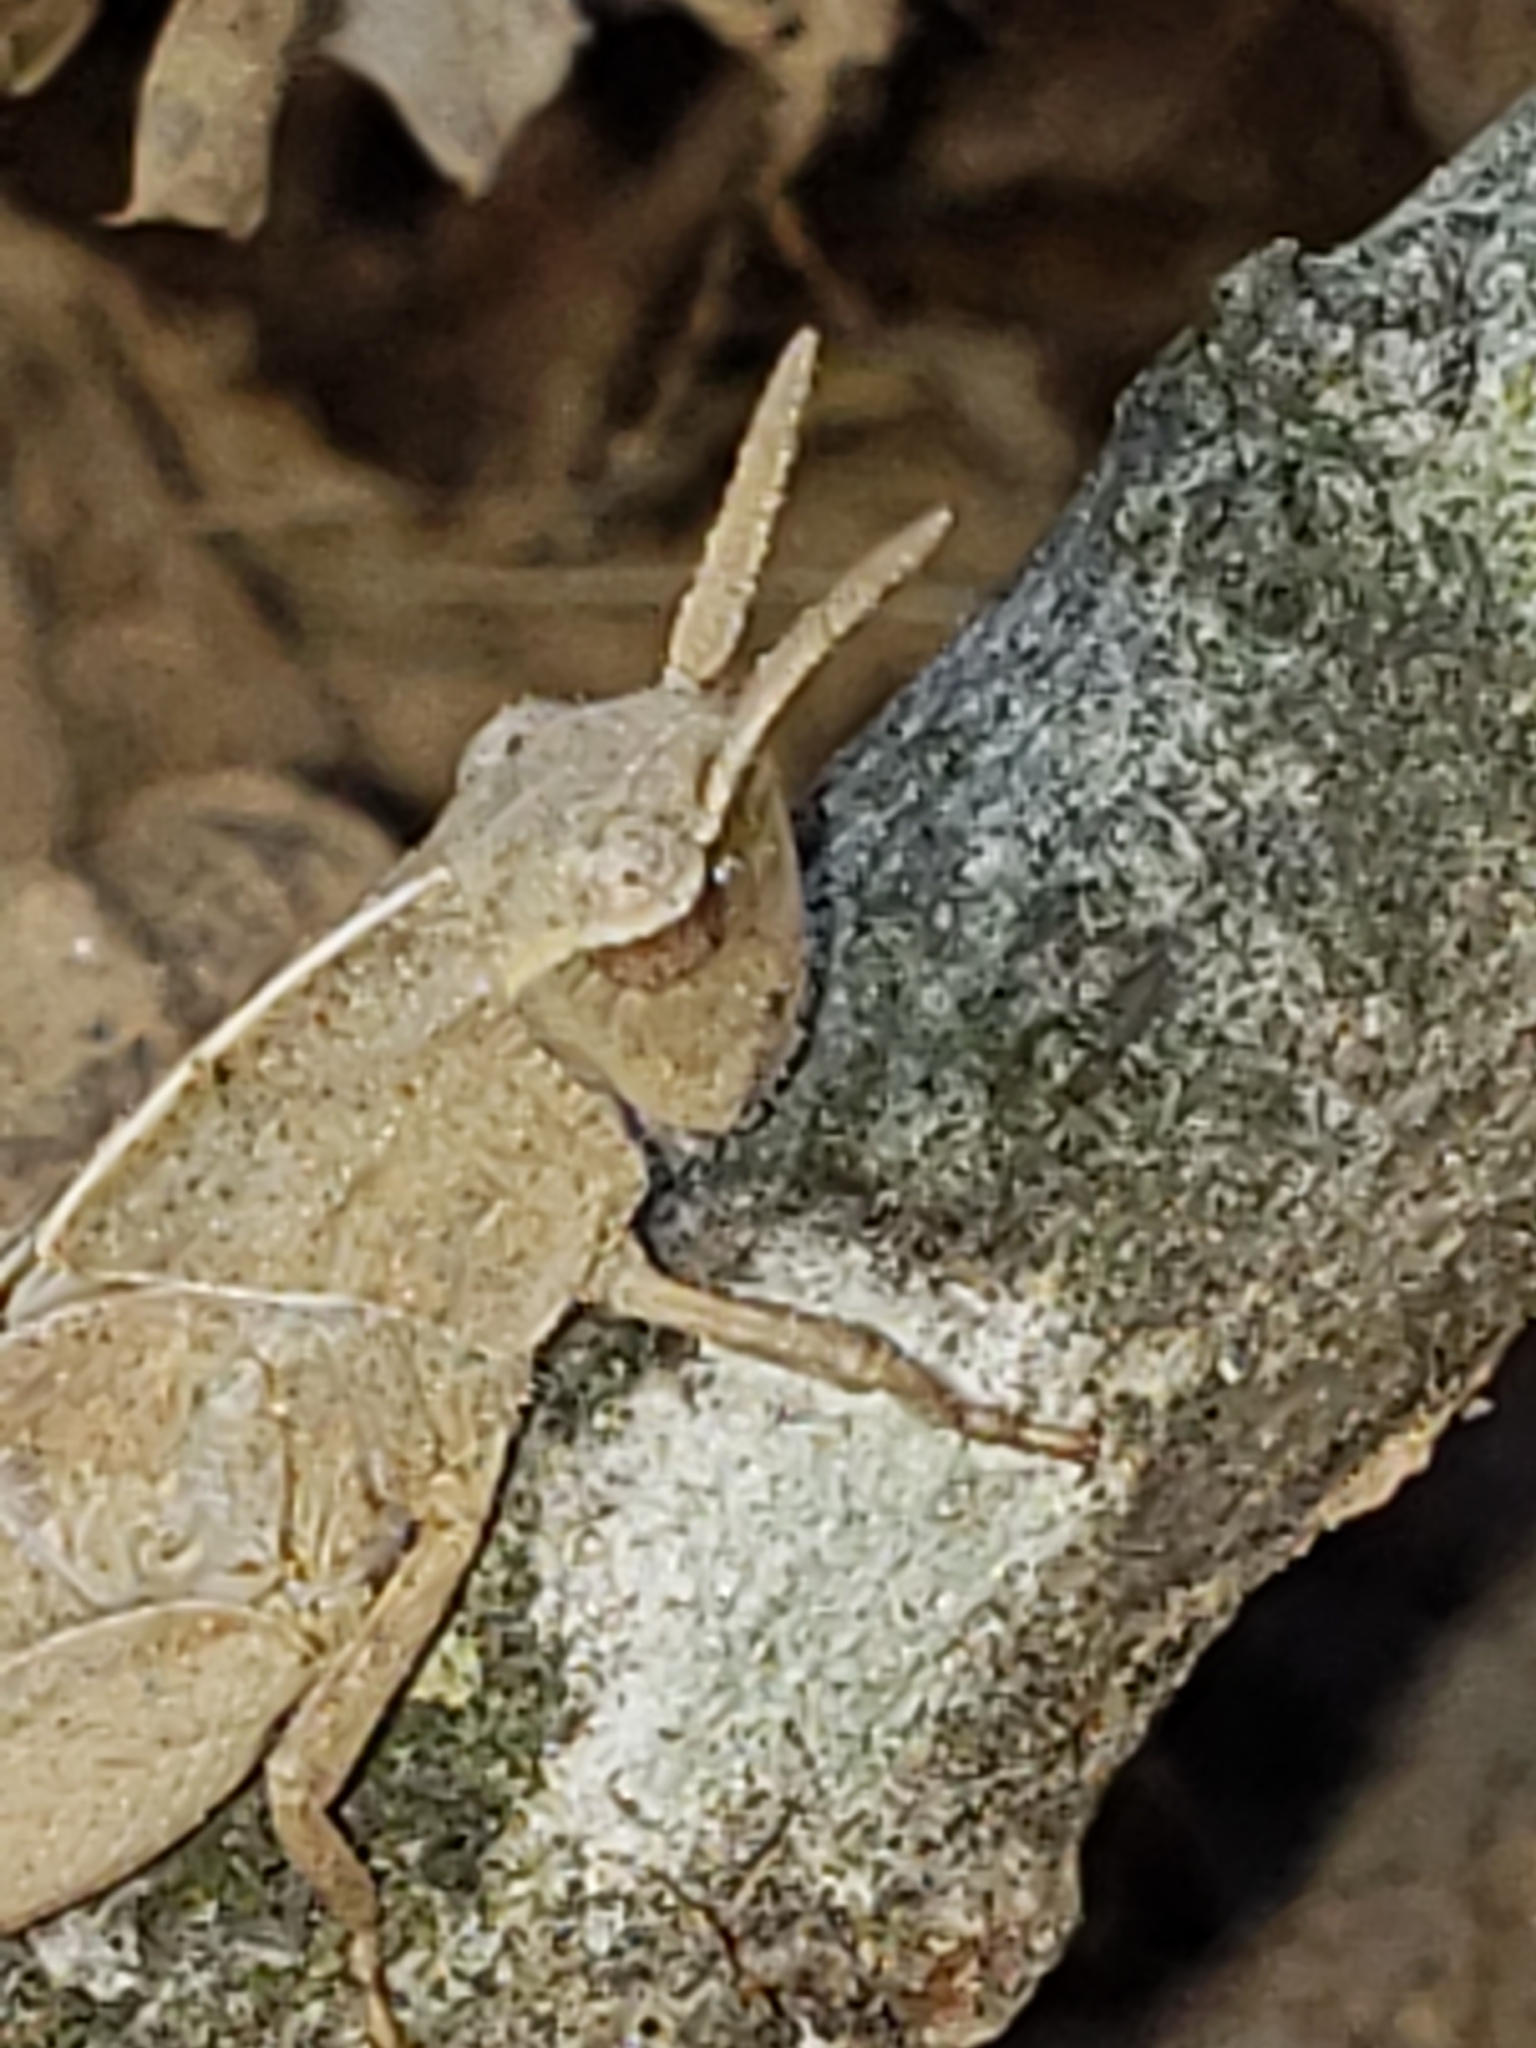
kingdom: Animalia
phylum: Arthropoda
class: Insecta
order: Orthoptera
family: Acrididae
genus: Chortophaga
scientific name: Chortophaga viridifasciata
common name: Green-striped grasshopper
